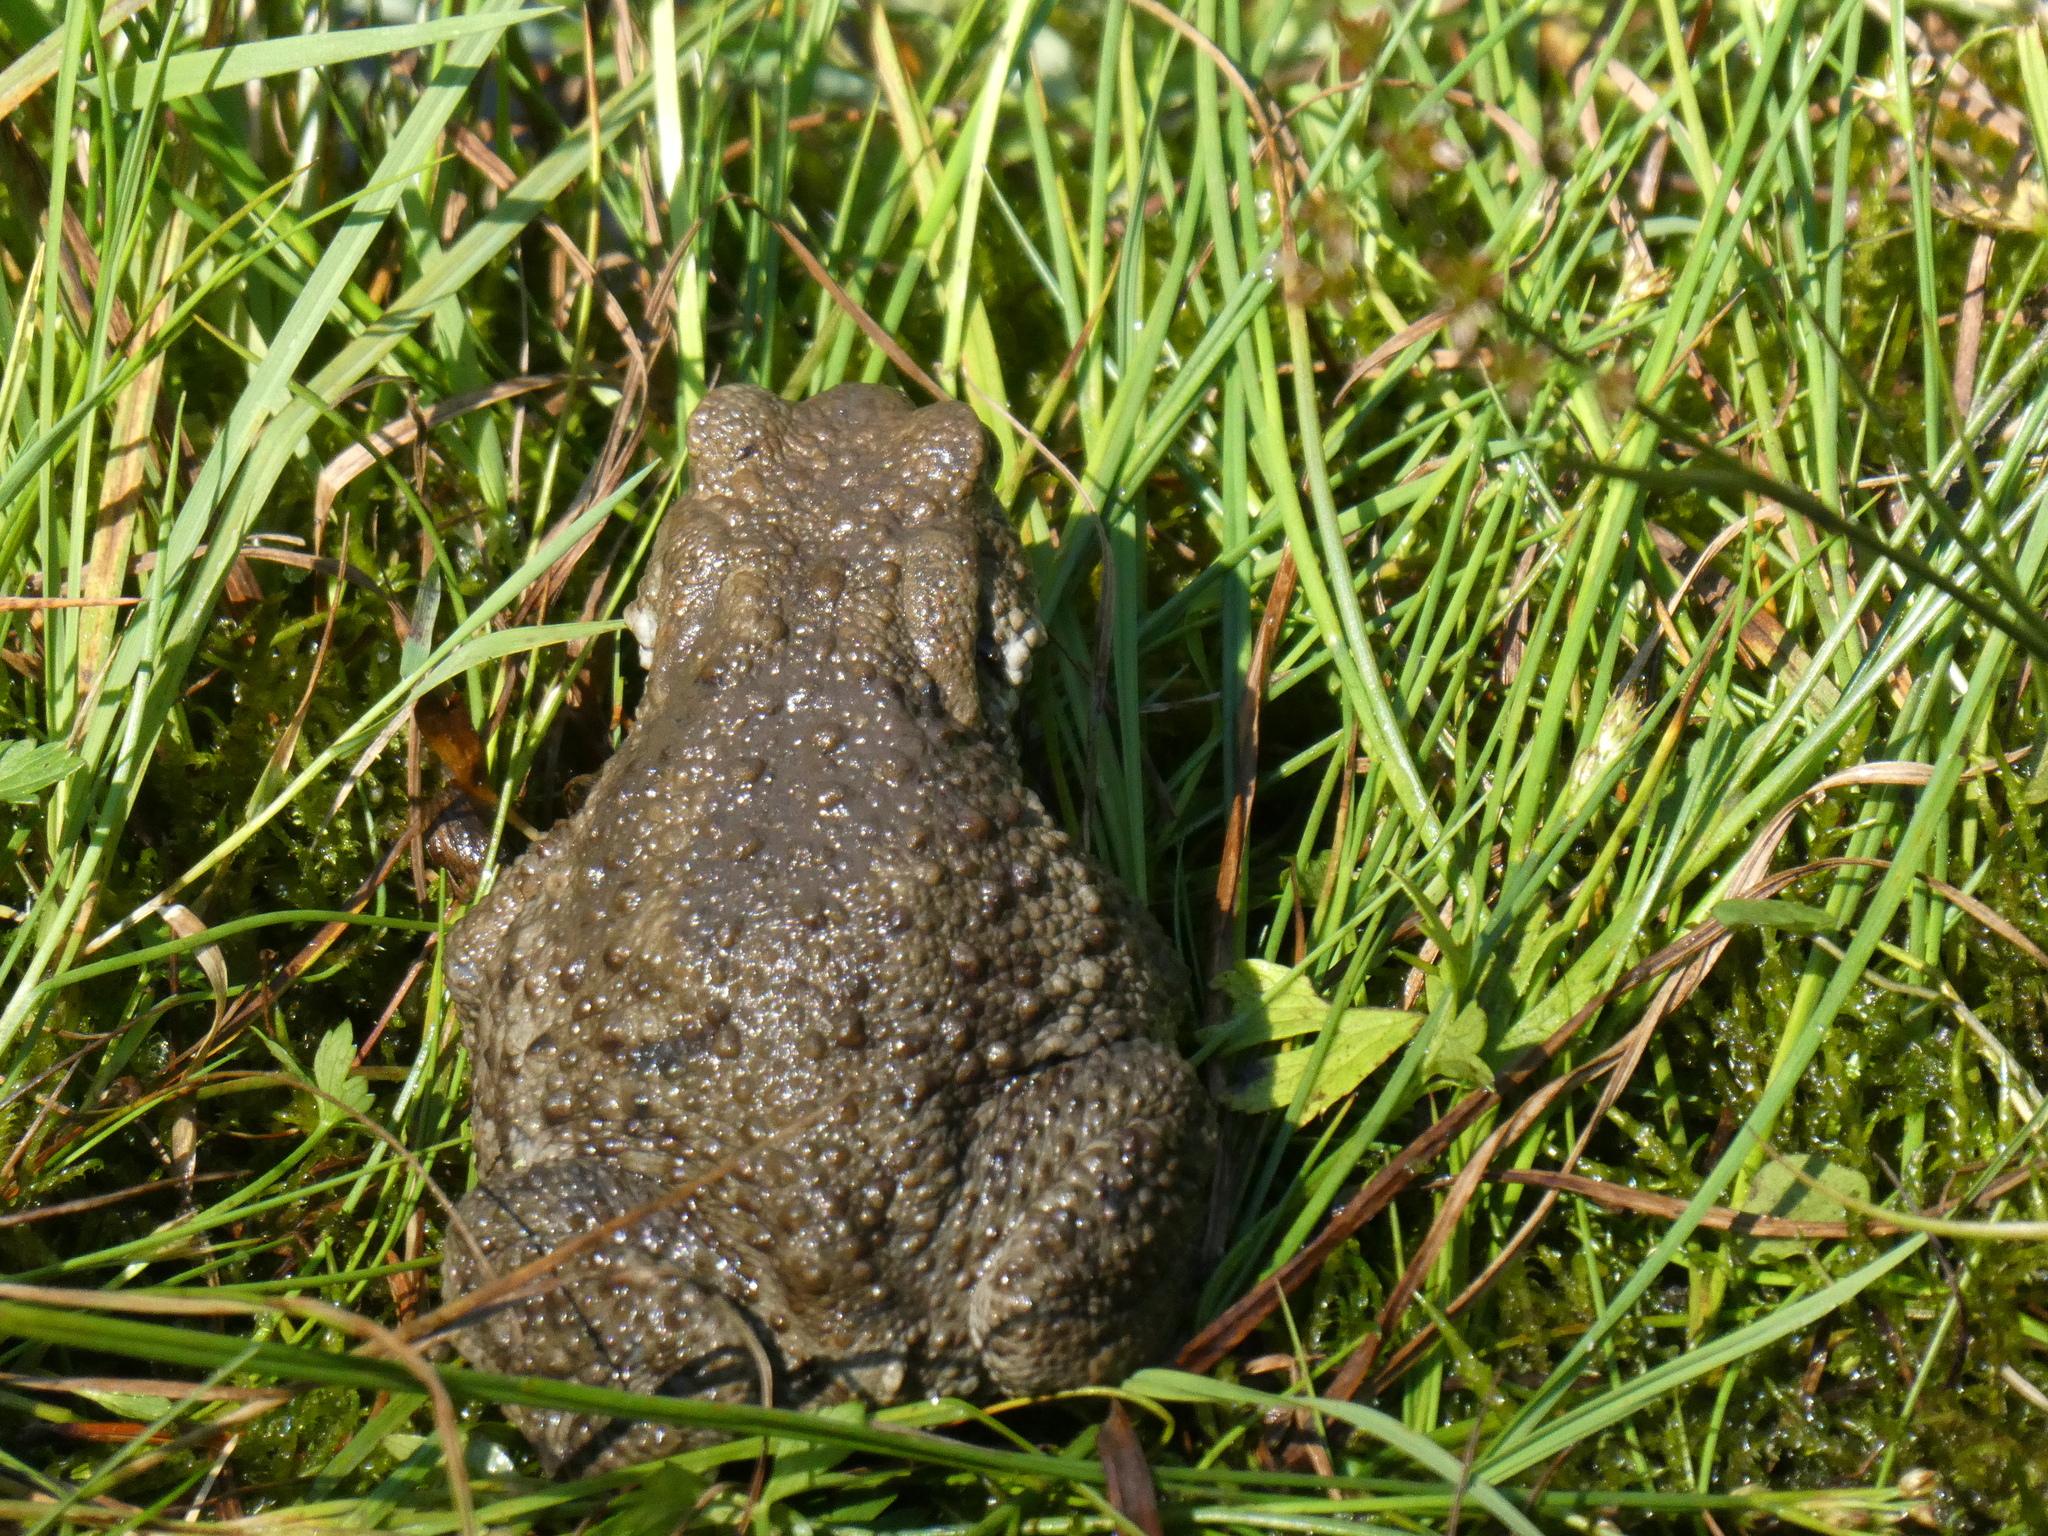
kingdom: Animalia
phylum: Chordata
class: Amphibia
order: Anura
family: Bufonidae
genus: Bufo
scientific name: Bufo bufo
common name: Common toad
